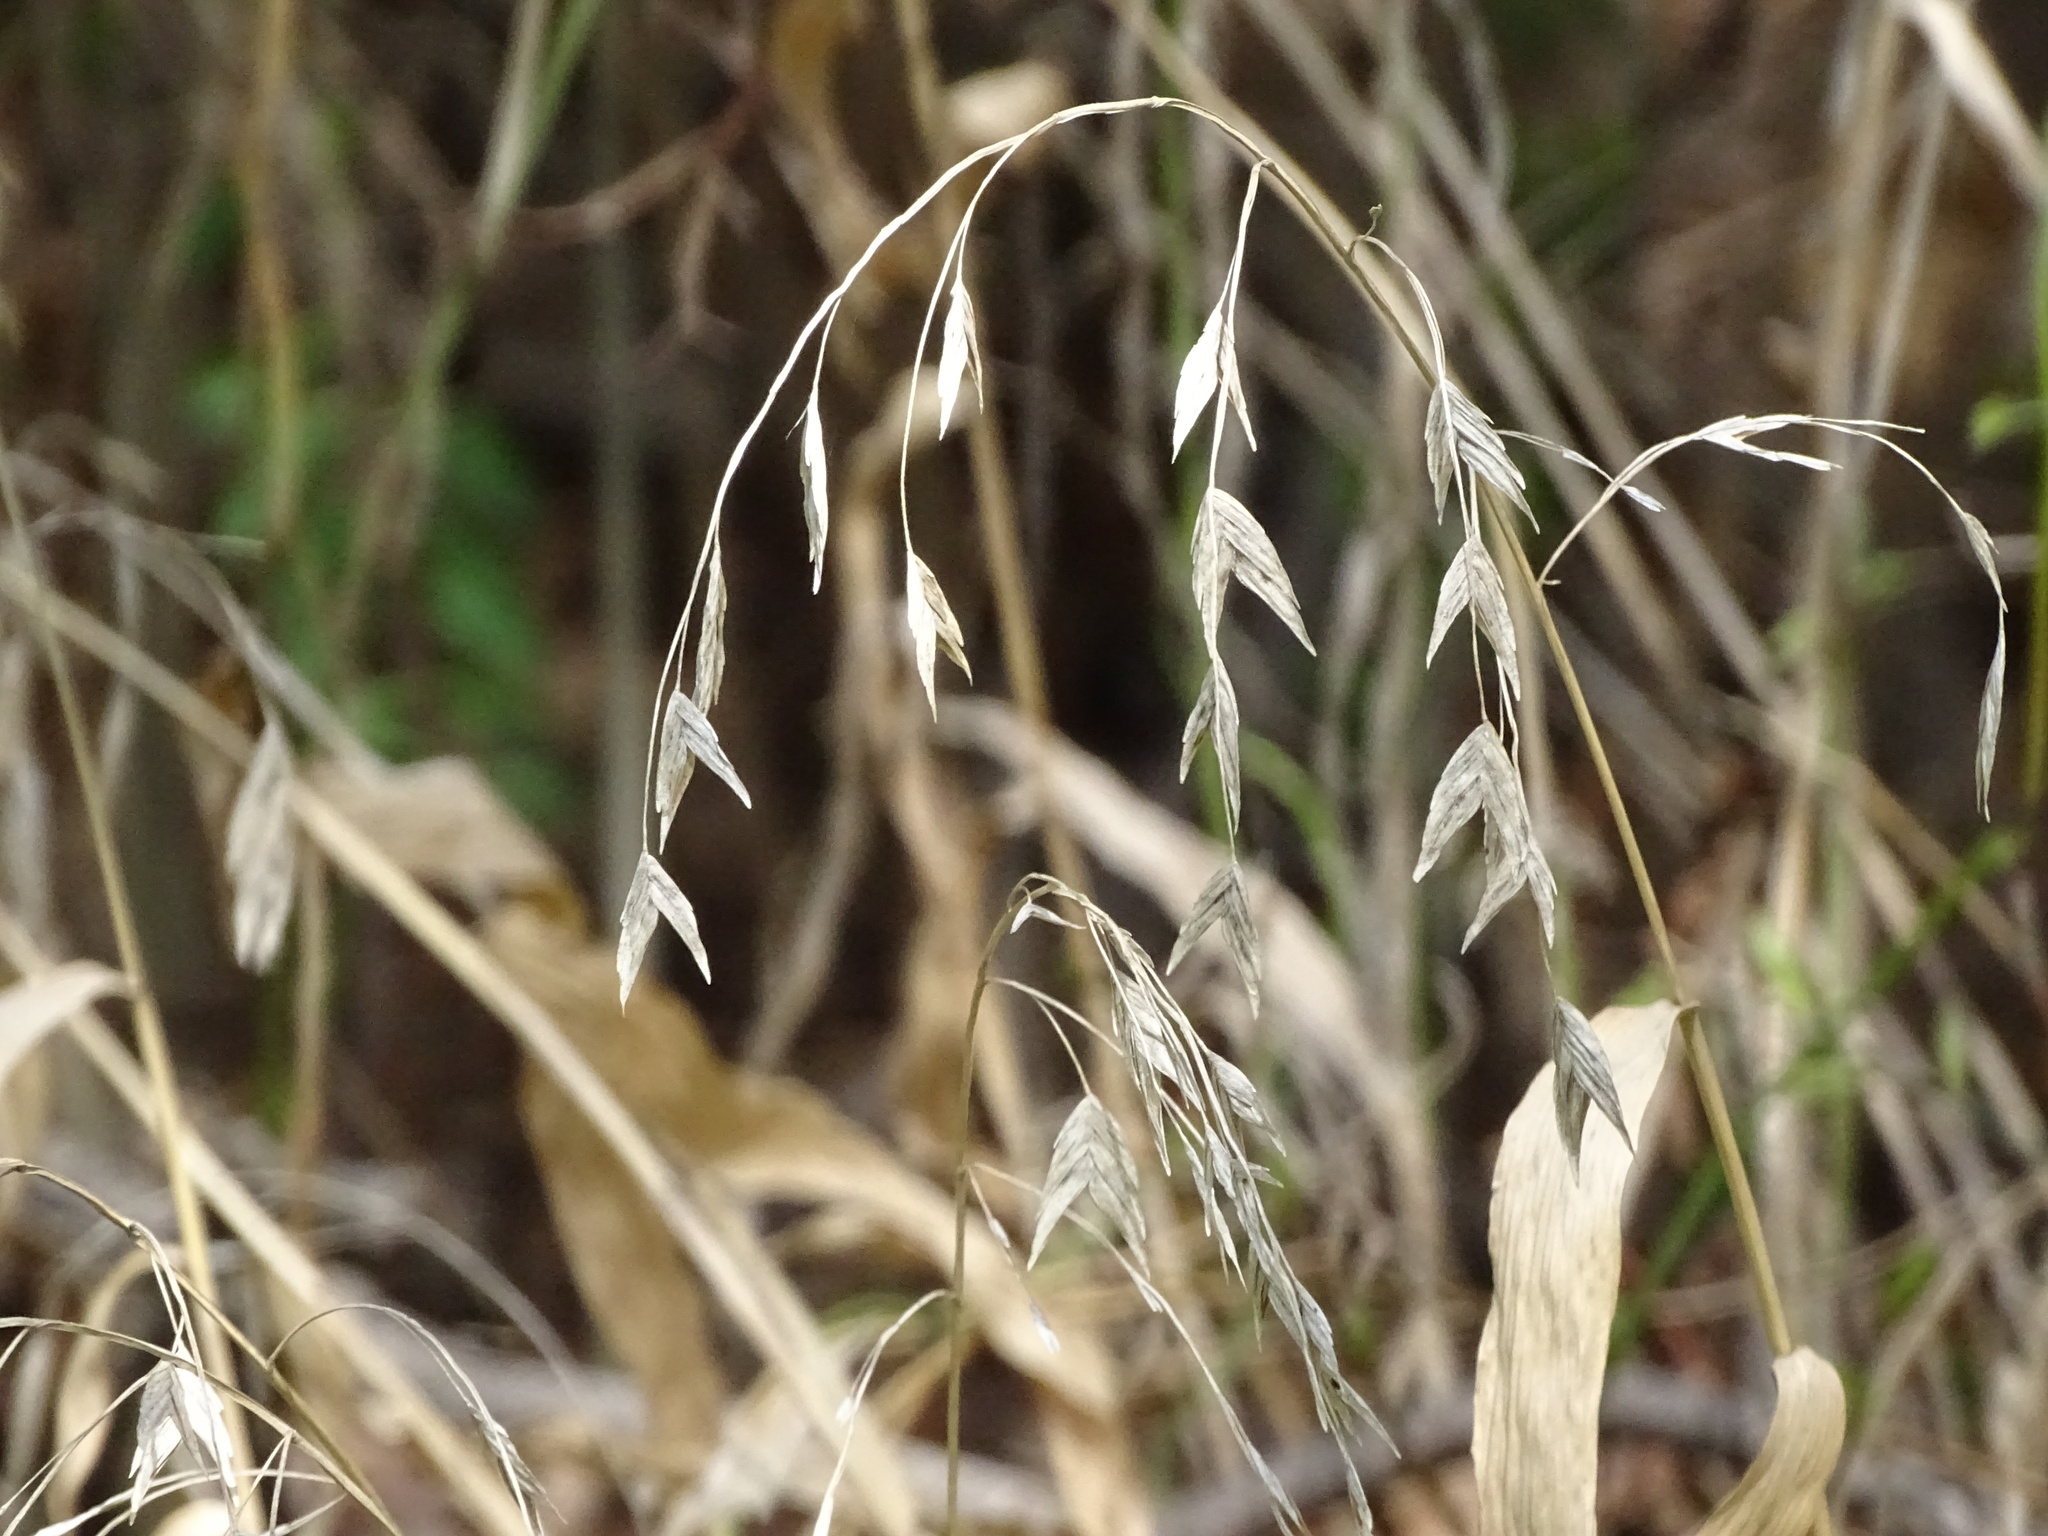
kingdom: Plantae
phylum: Tracheophyta
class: Liliopsida
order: Poales
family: Poaceae
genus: Chasmanthium
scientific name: Chasmanthium latifolium
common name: Broad-leaved chasmanthium
